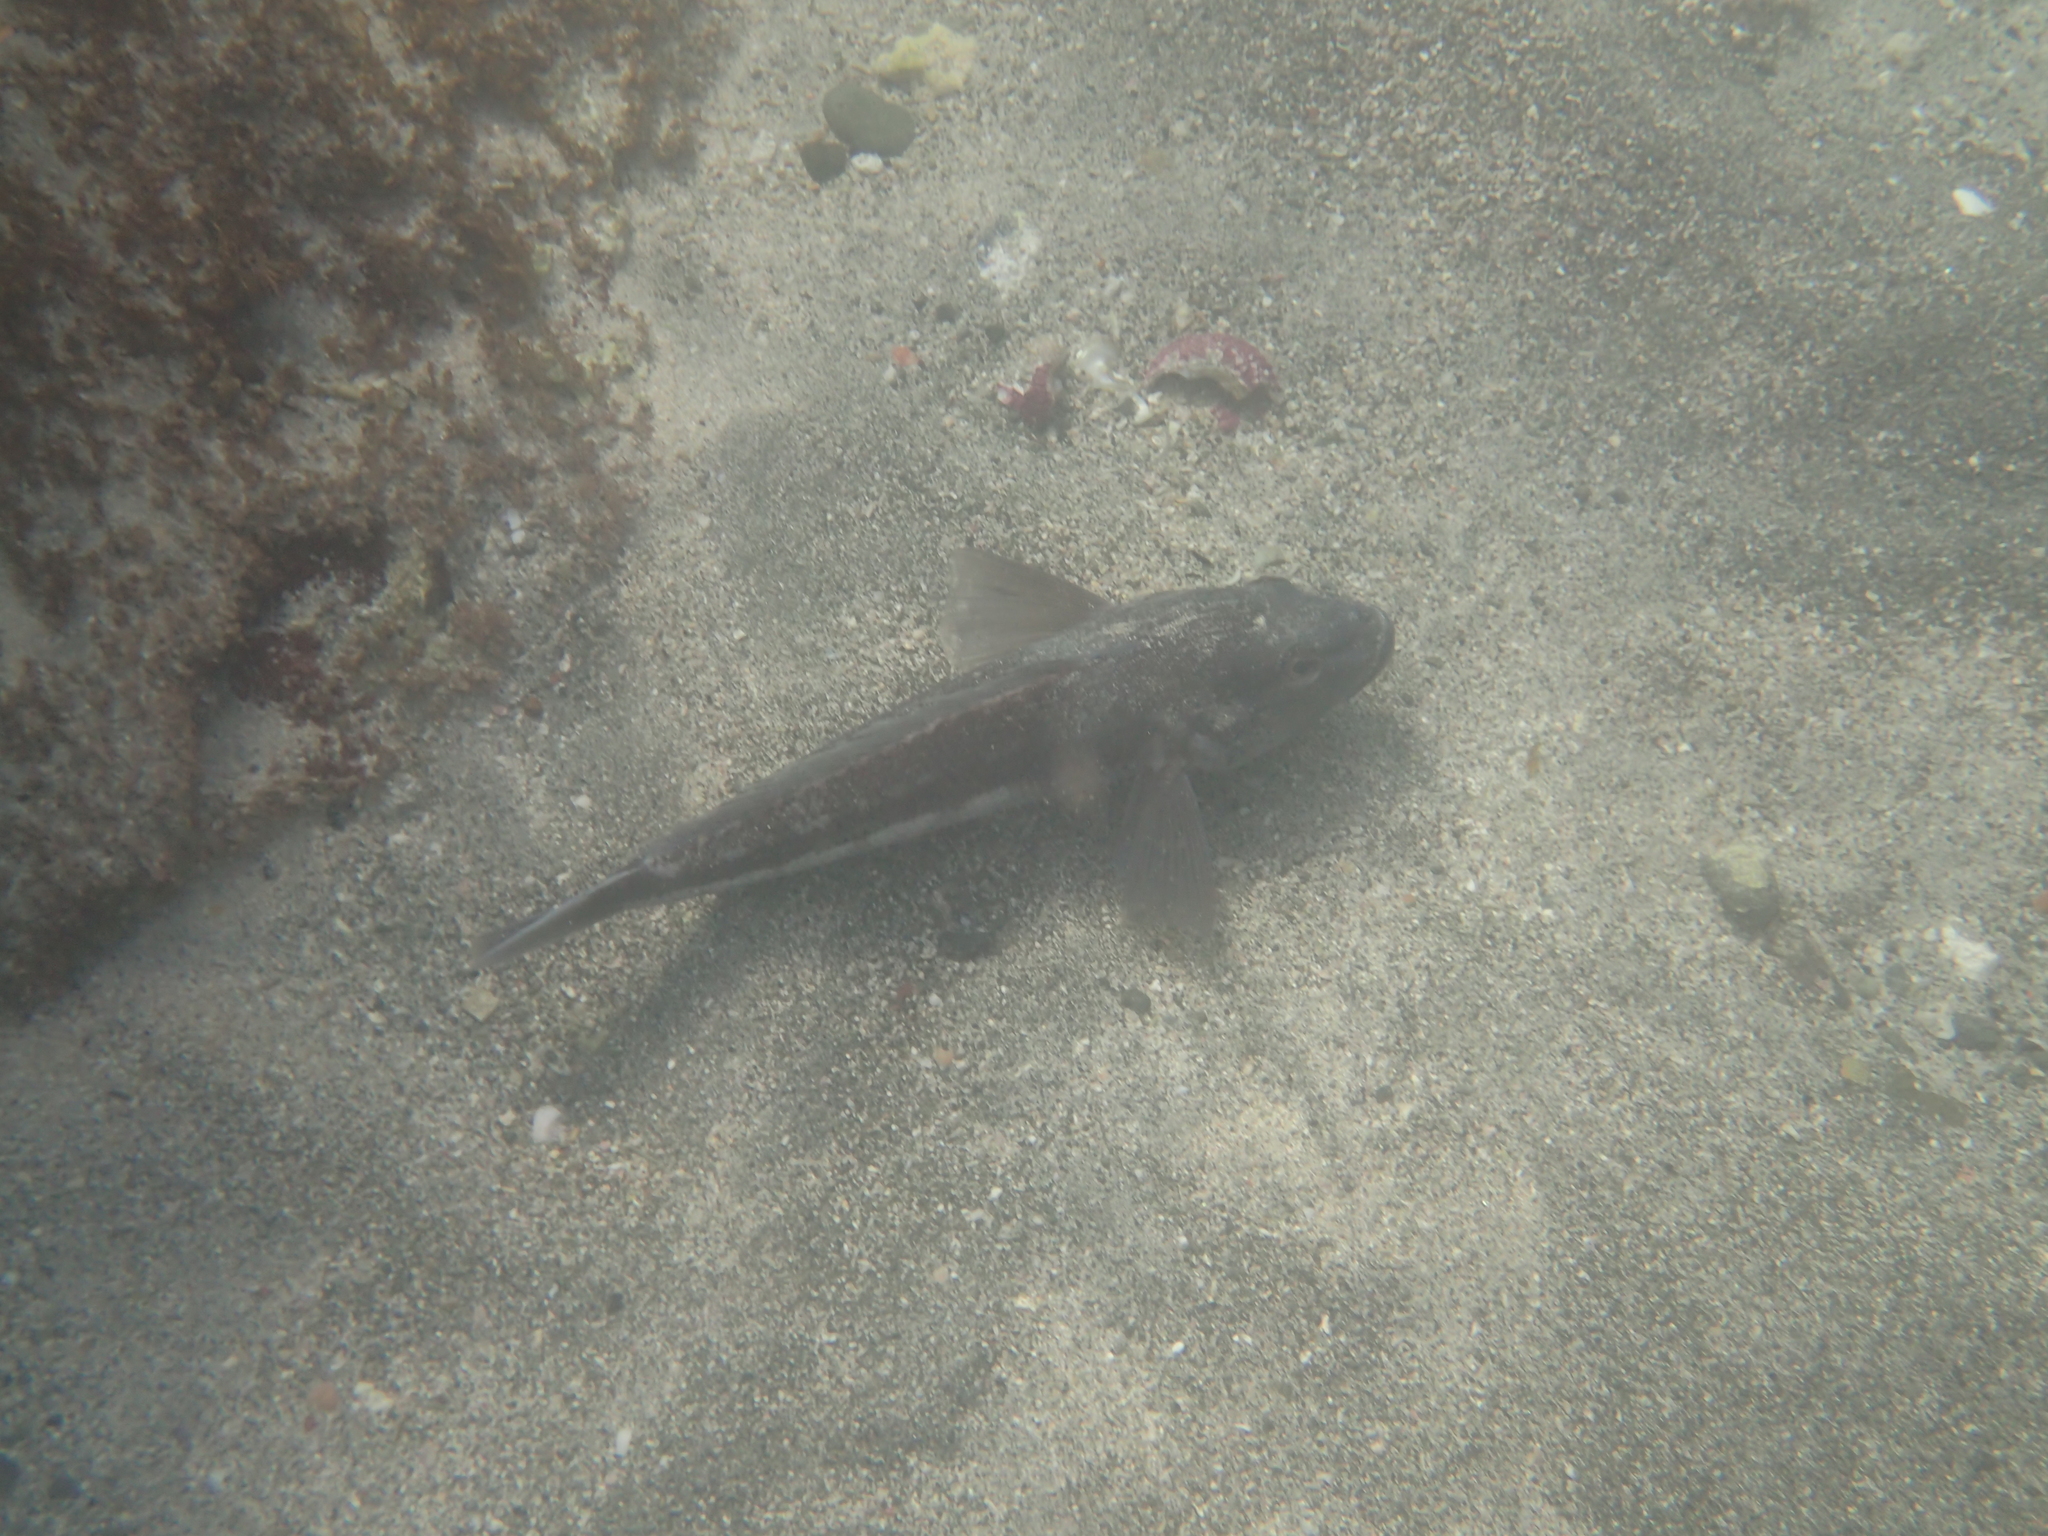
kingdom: Animalia
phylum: Chordata
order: Perciformes
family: Pinguipedidae
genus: Parapercis
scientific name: Parapercis colias
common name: Blue cod
